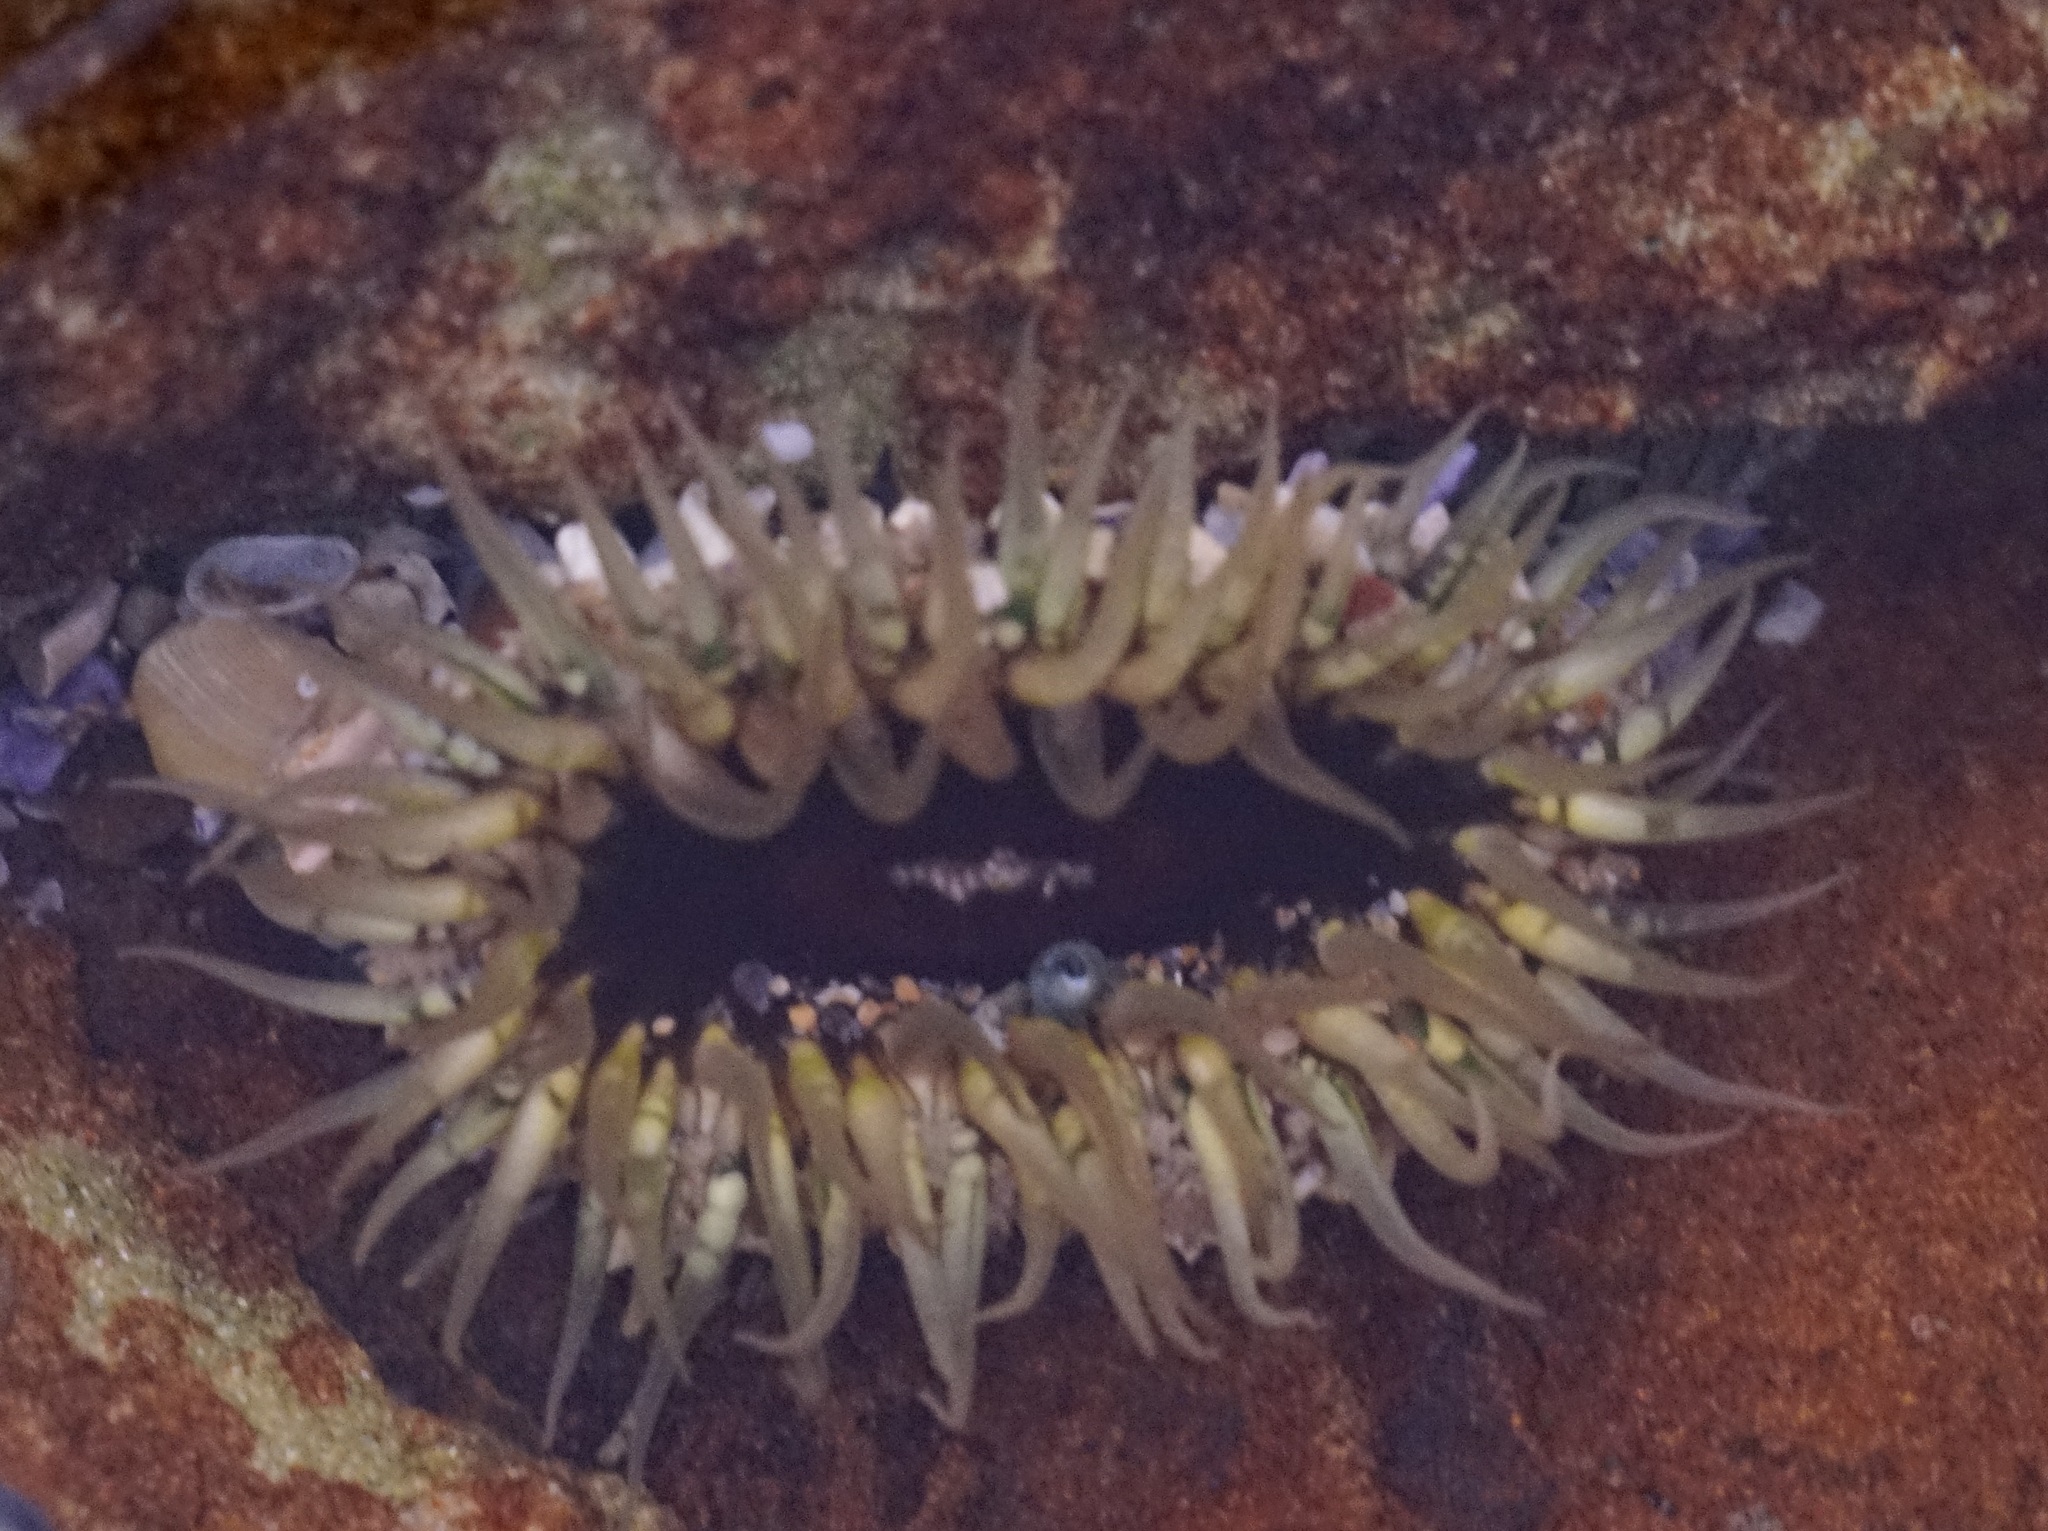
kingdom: Animalia
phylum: Cnidaria
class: Anthozoa
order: Actiniaria
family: Actiniidae
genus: Oulactis
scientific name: Oulactis muscosa
